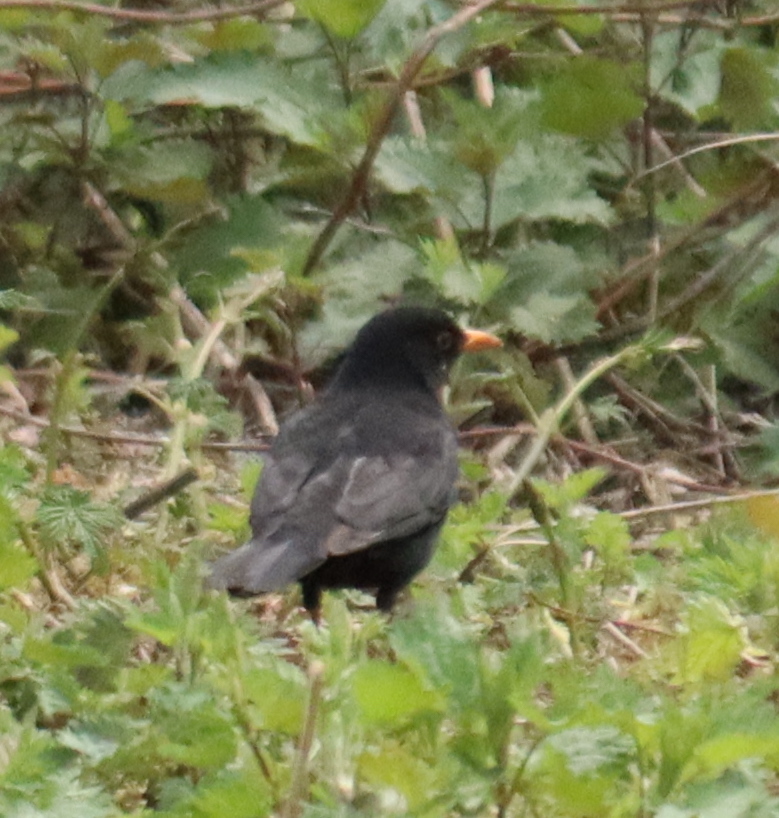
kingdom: Animalia
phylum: Chordata
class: Aves
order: Passeriformes
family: Turdidae
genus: Turdus
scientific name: Turdus merula
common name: Common blackbird
